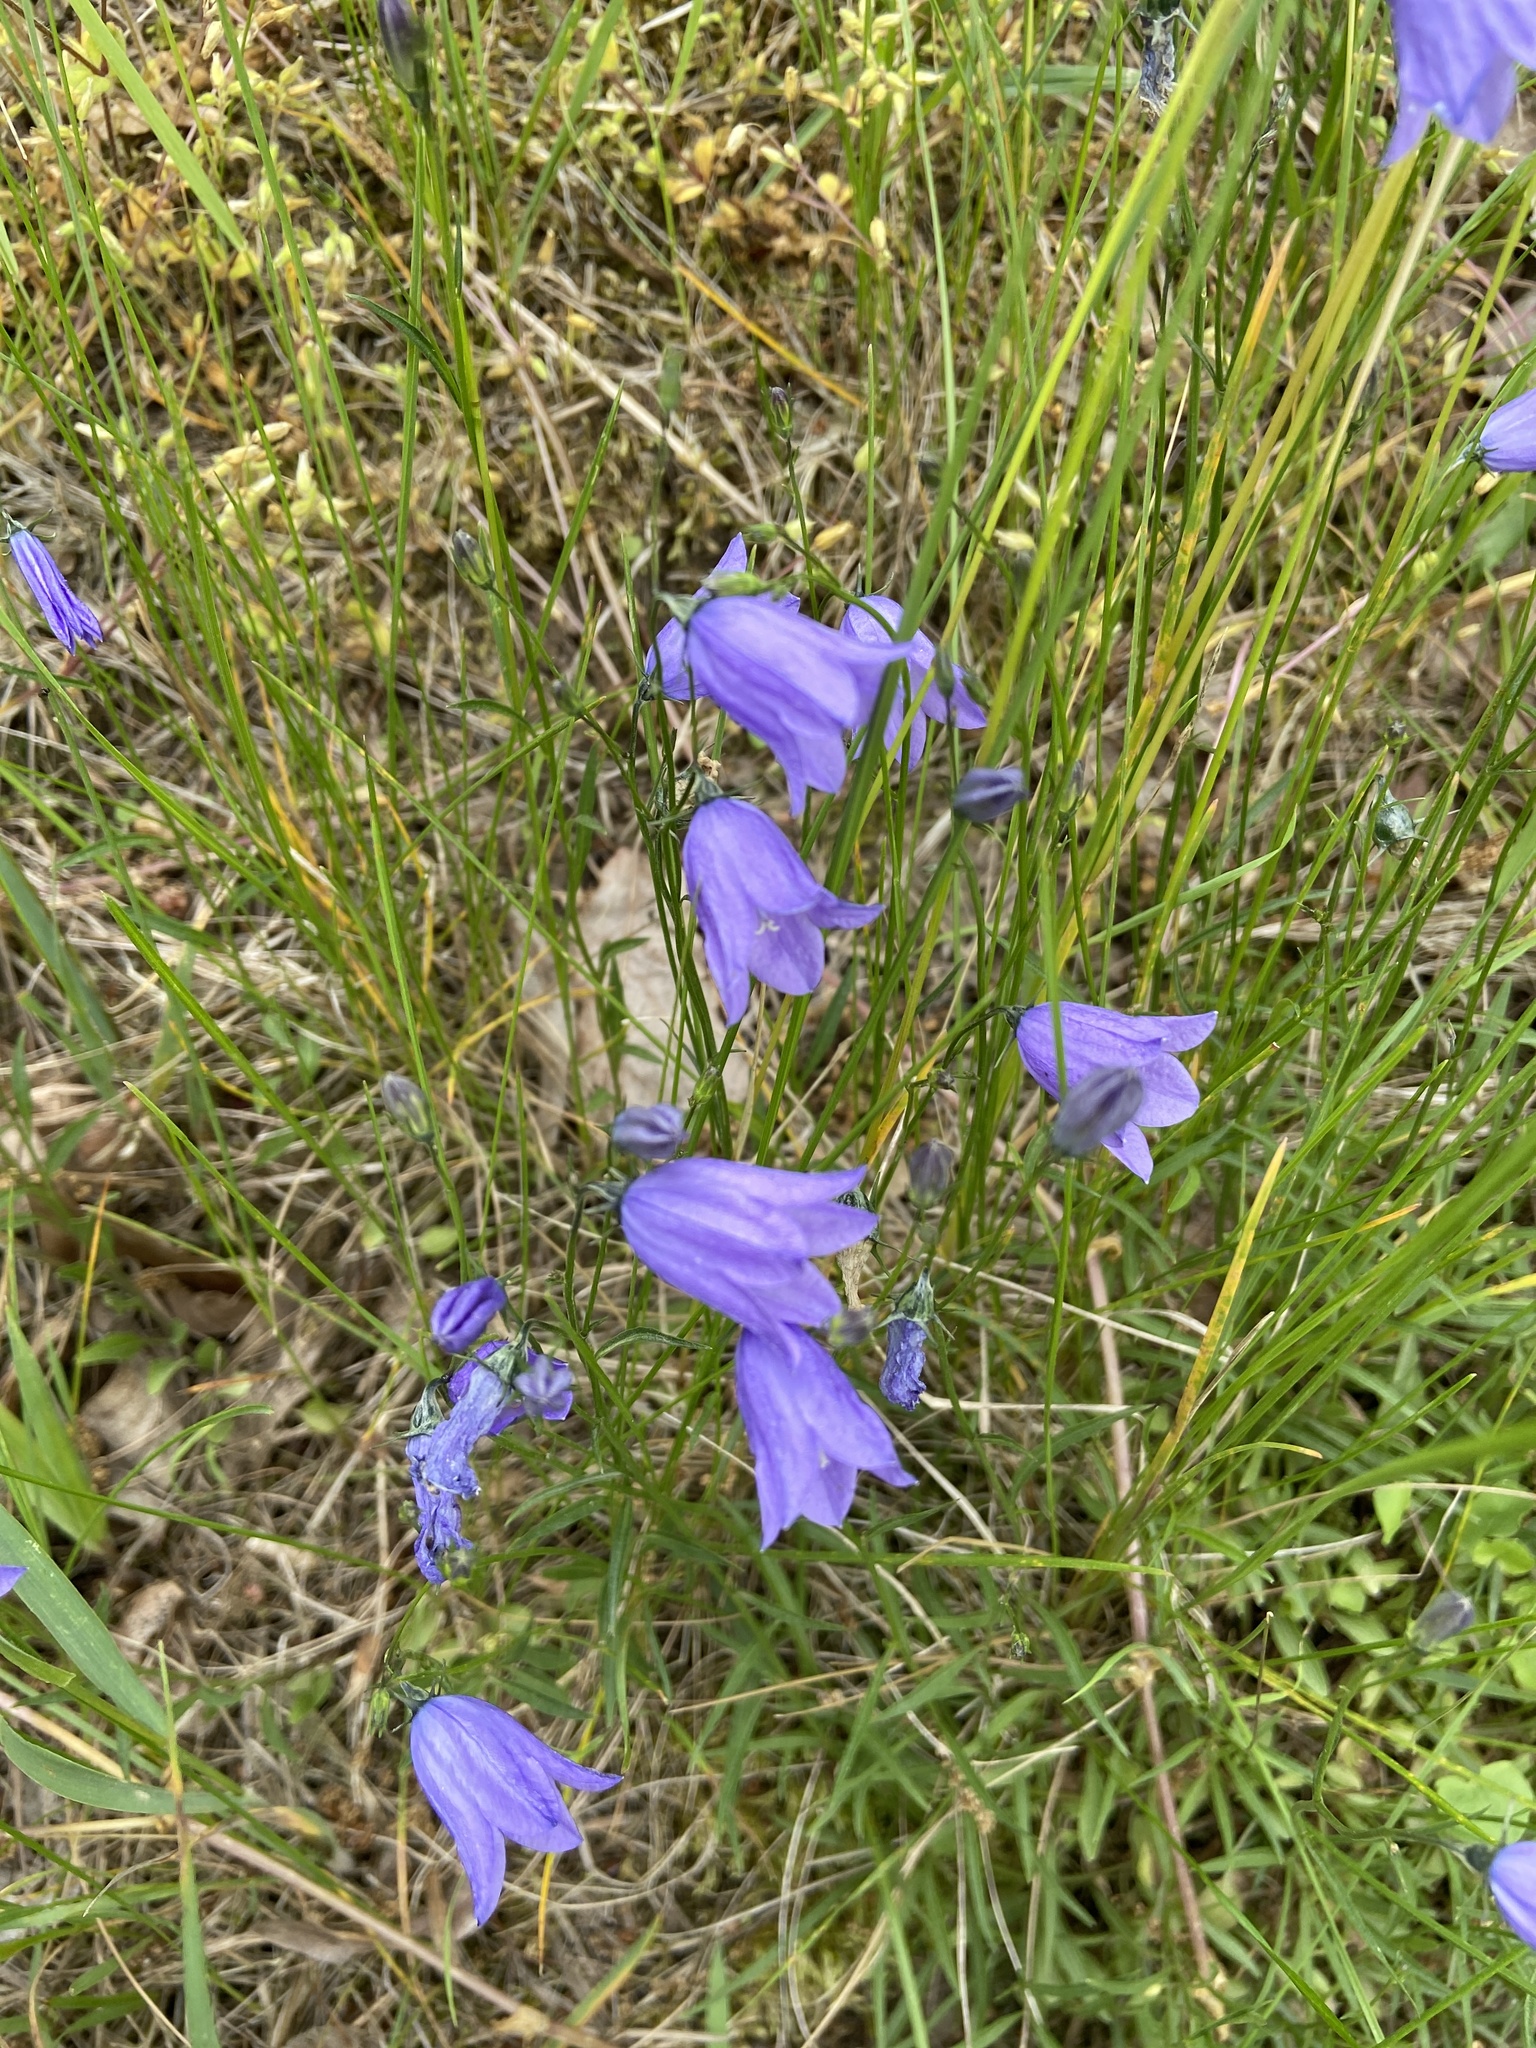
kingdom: Plantae
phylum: Tracheophyta
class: Magnoliopsida
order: Asterales
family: Campanulaceae
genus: Campanula
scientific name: Campanula rotundifolia
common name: Harebell
